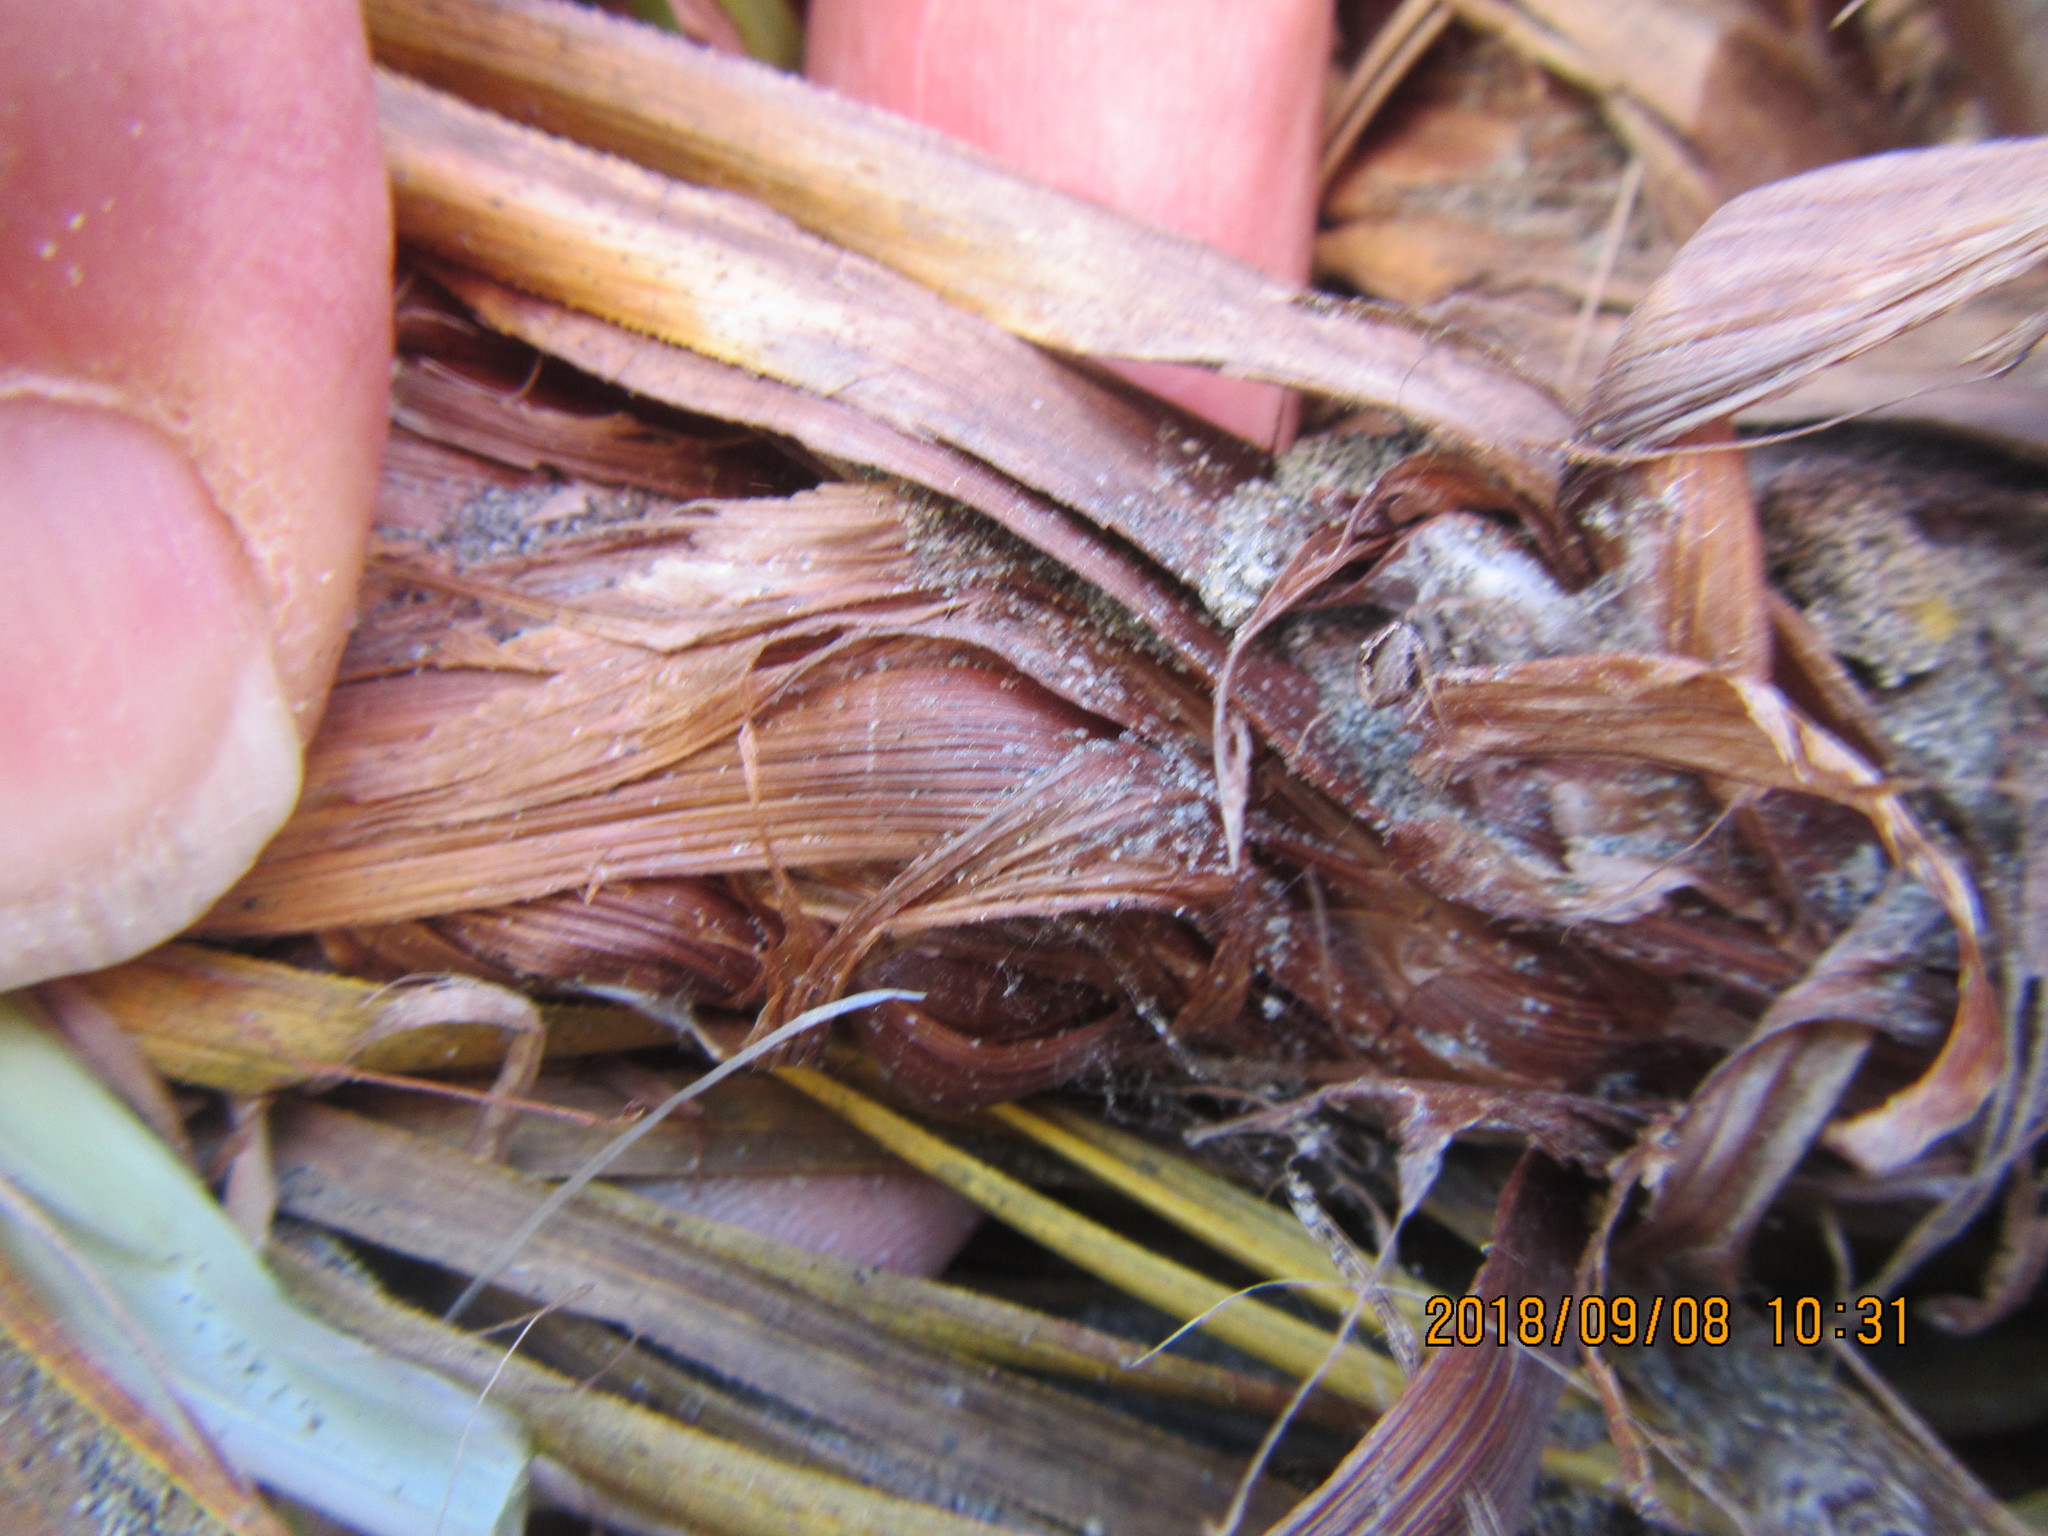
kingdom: Animalia
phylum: Arthropoda
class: Arachnida
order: Araneae
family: Mimetidae
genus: Australomimetus
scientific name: Australomimetus hartleyensis
